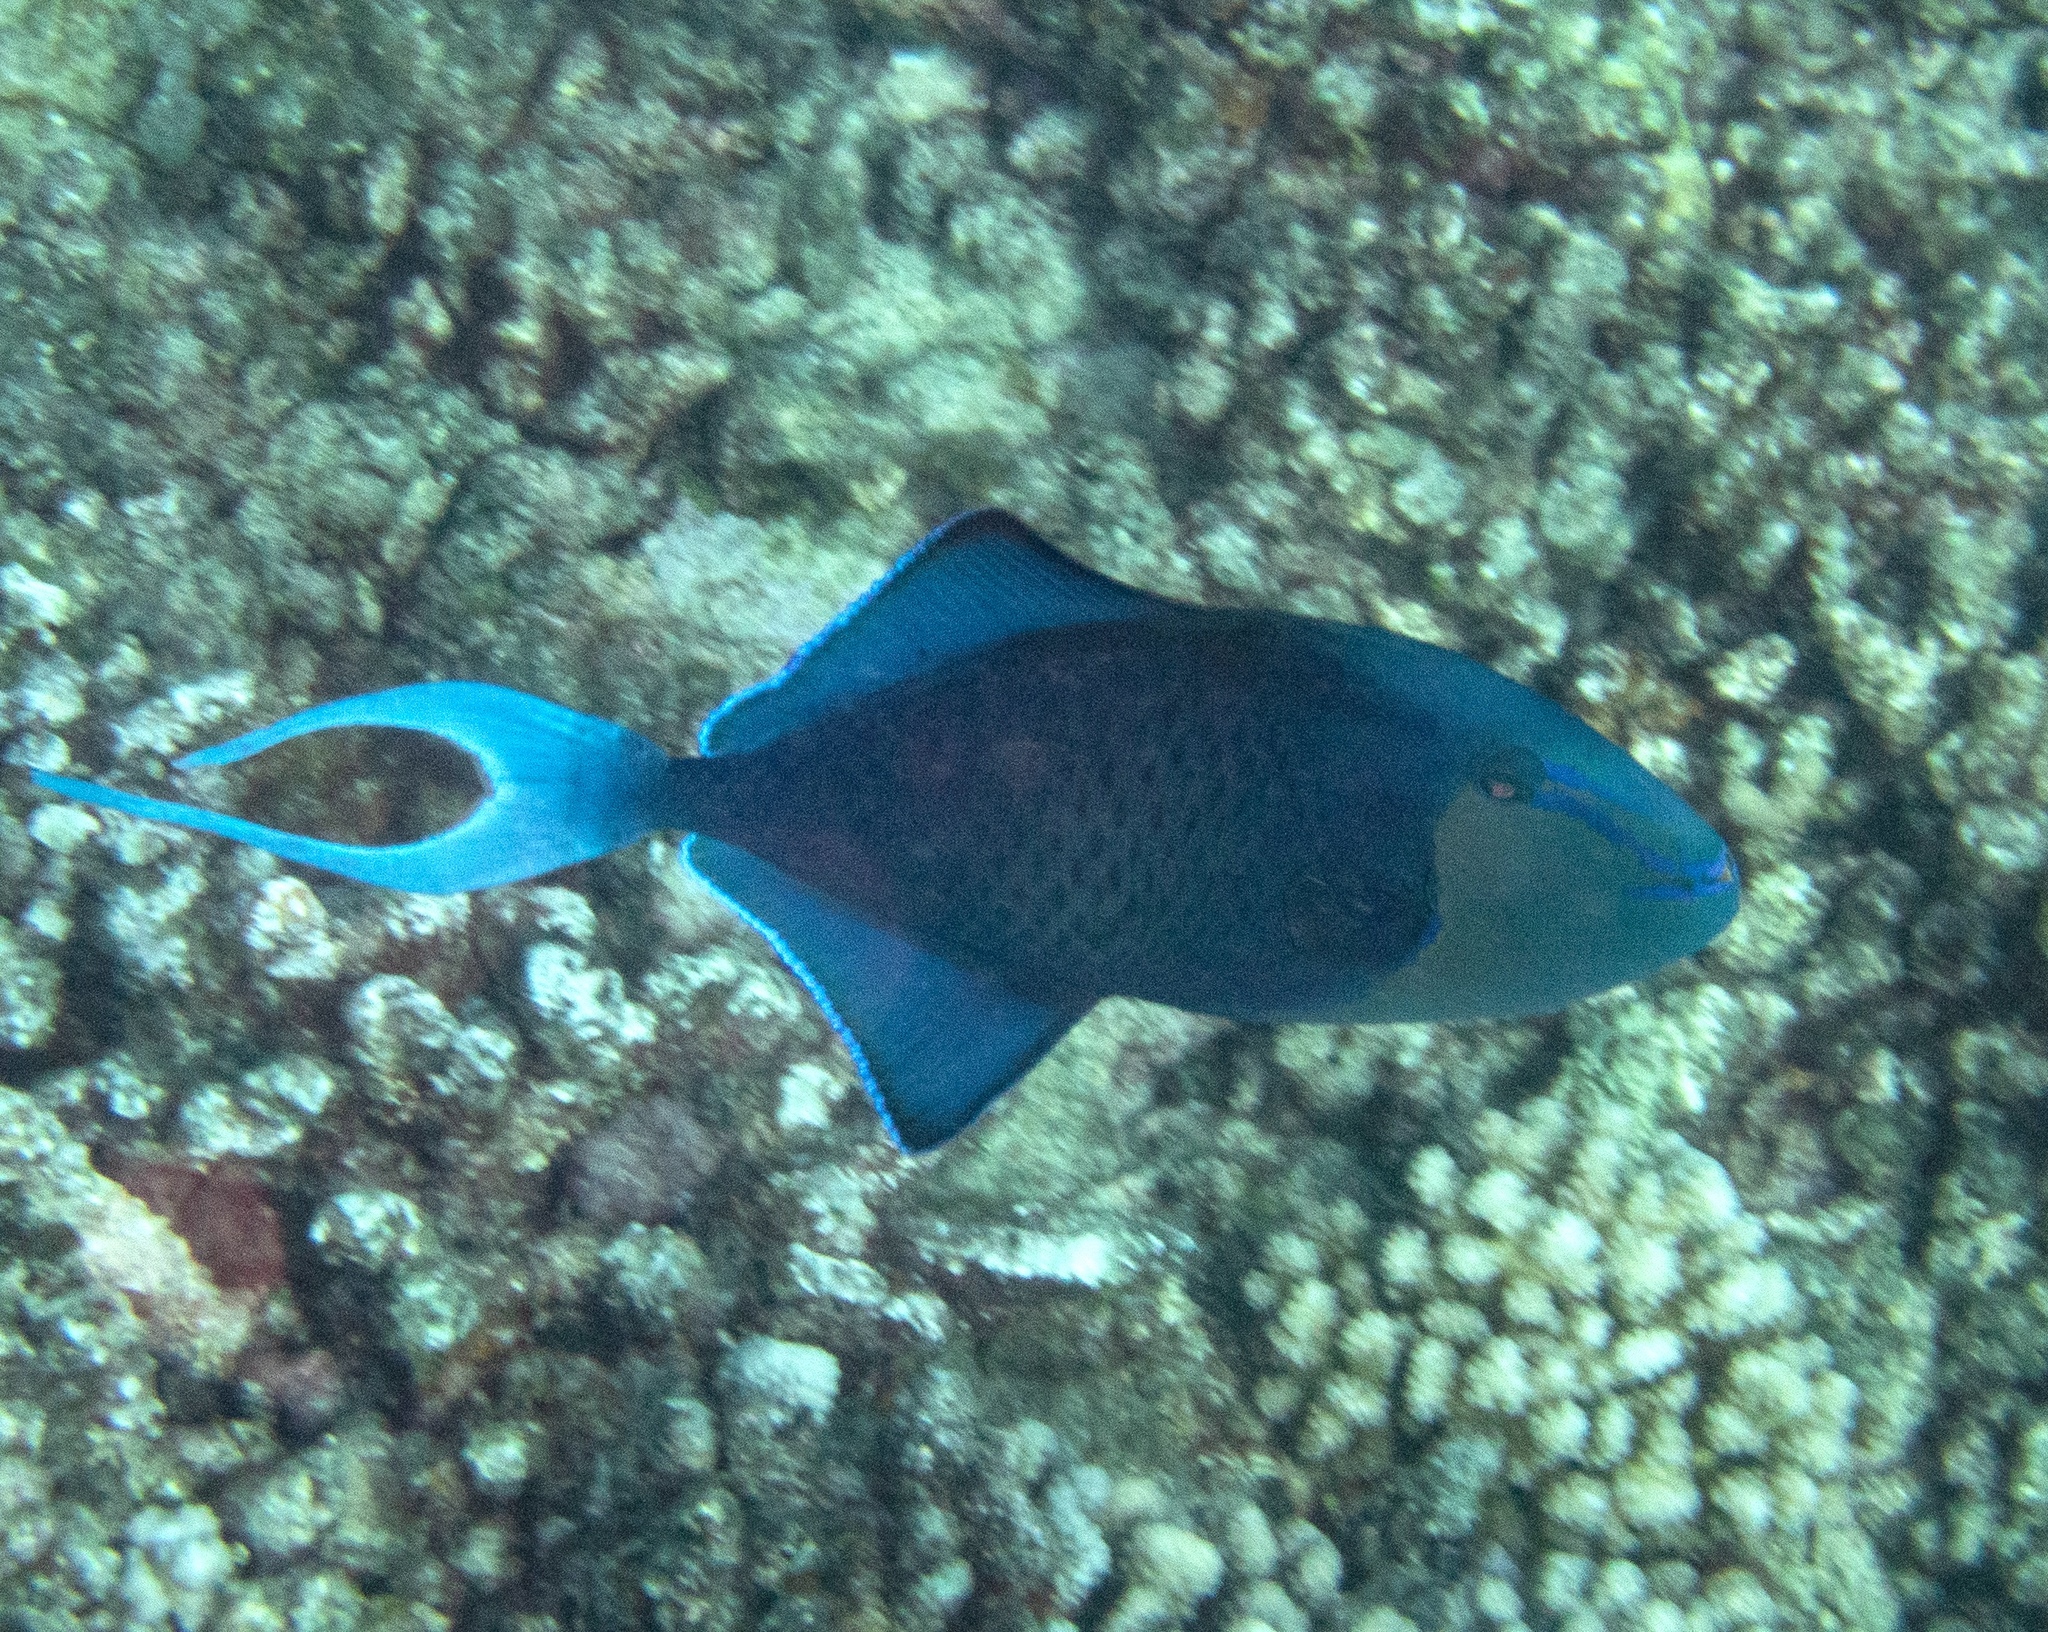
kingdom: Animalia
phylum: Chordata
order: Tetraodontiformes
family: Balistidae
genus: Odonus
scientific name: Odonus niger
